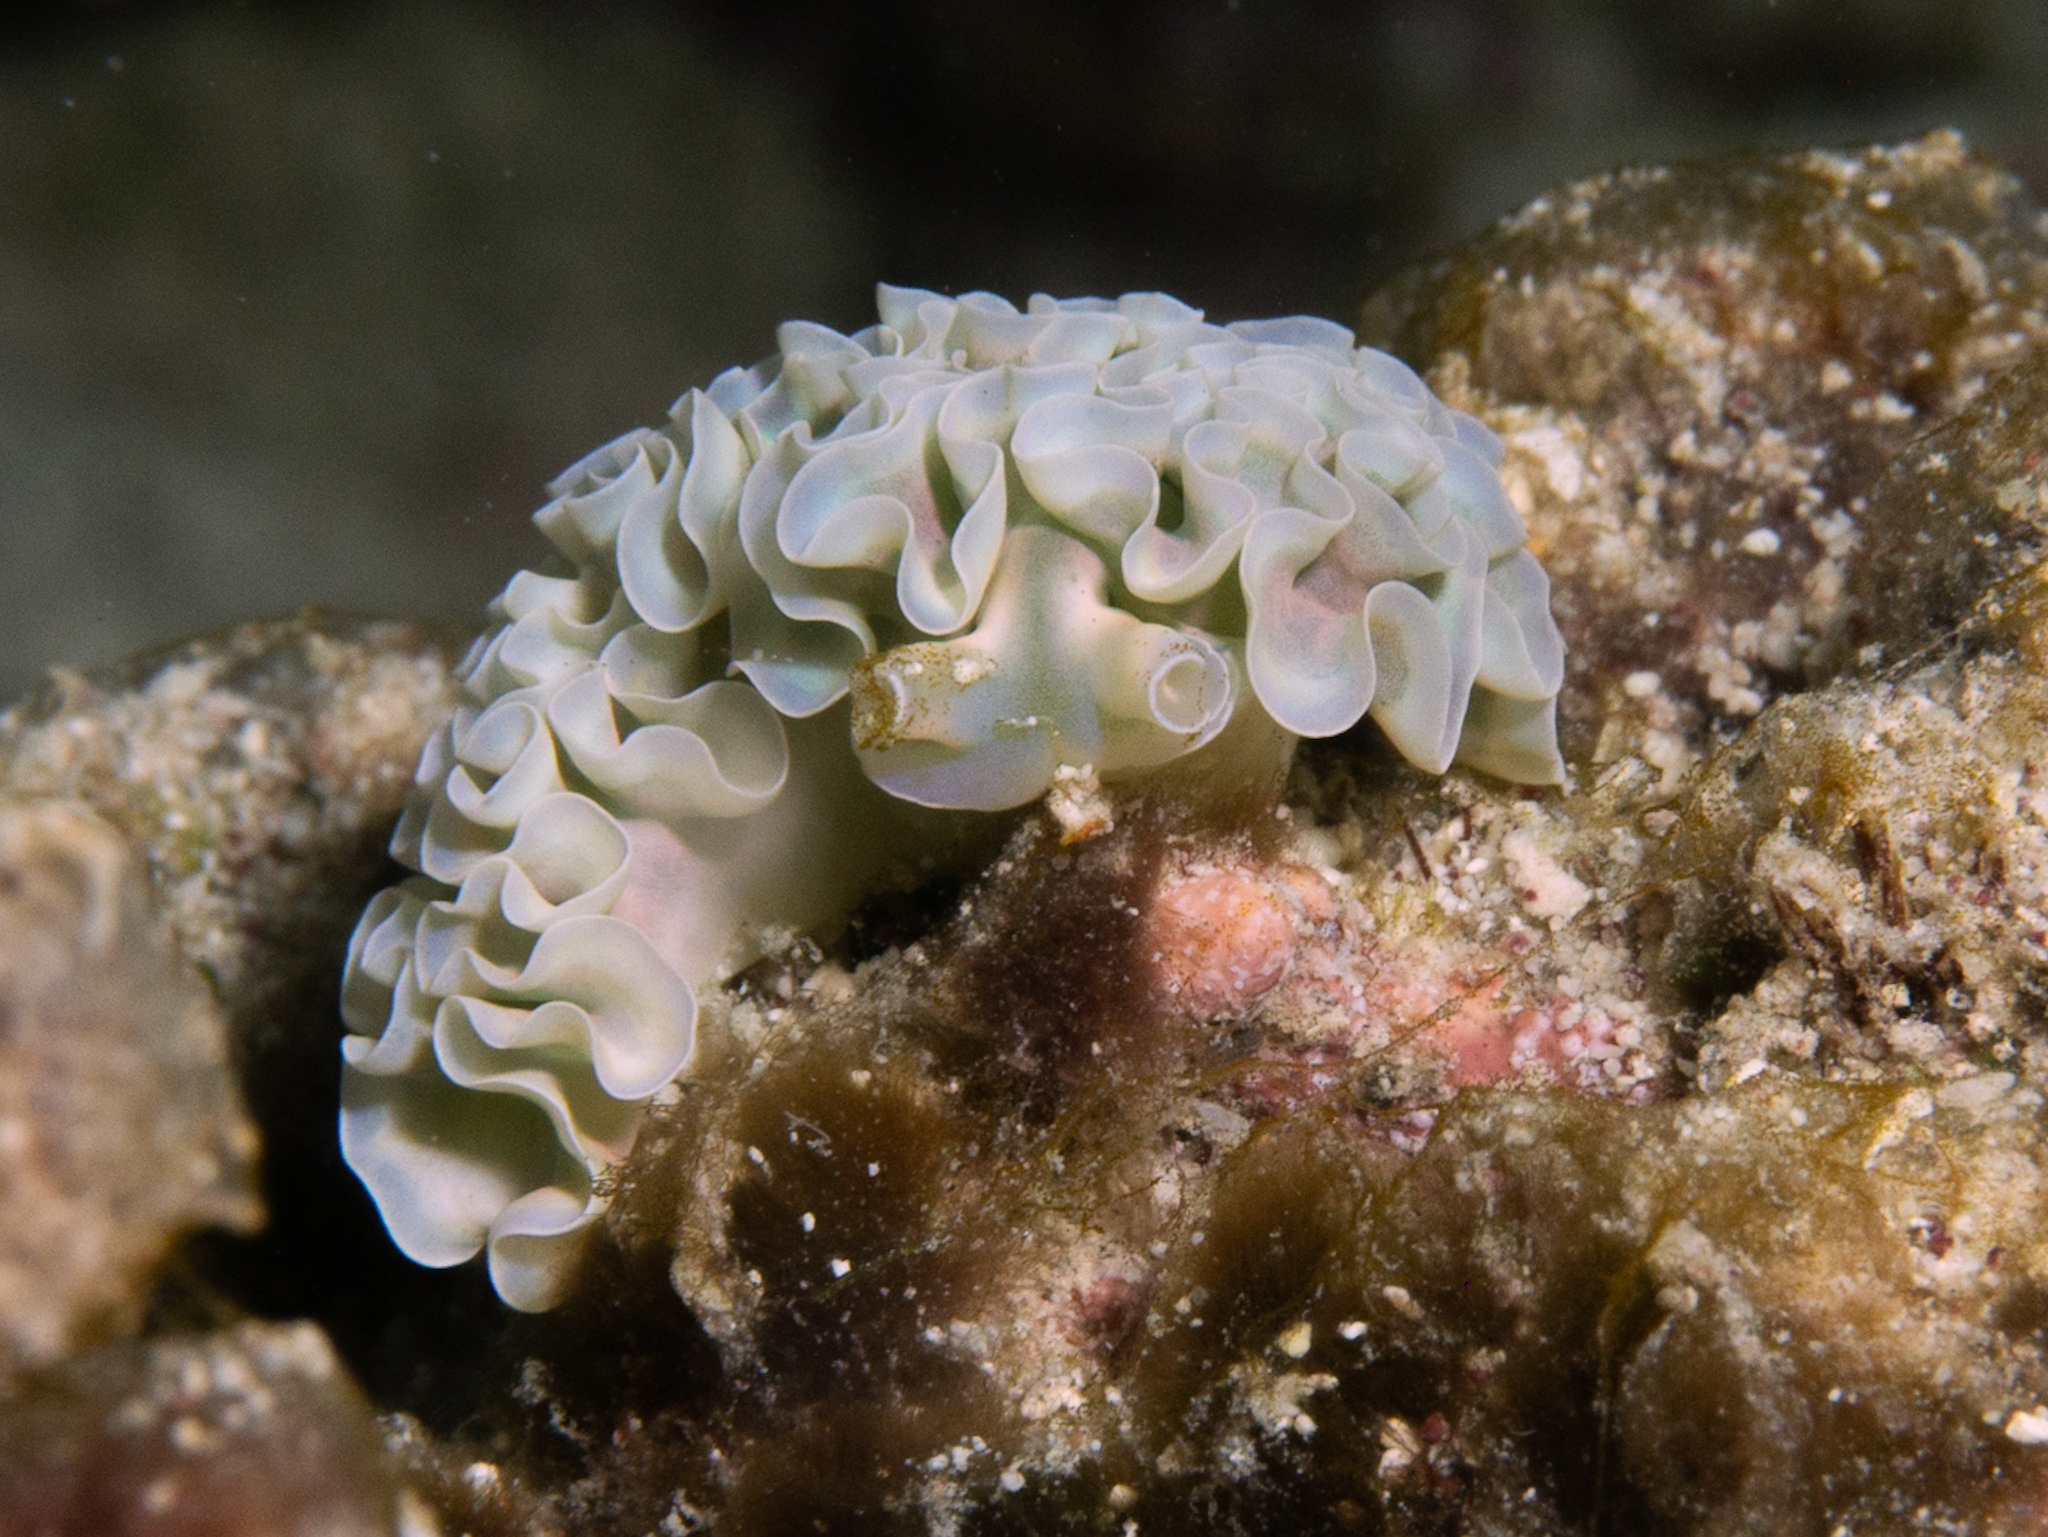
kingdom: Animalia
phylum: Mollusca
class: Gastropoda
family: Plakobranchidae
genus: Elysia
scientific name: Elysia crispata
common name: Lettuce slug
